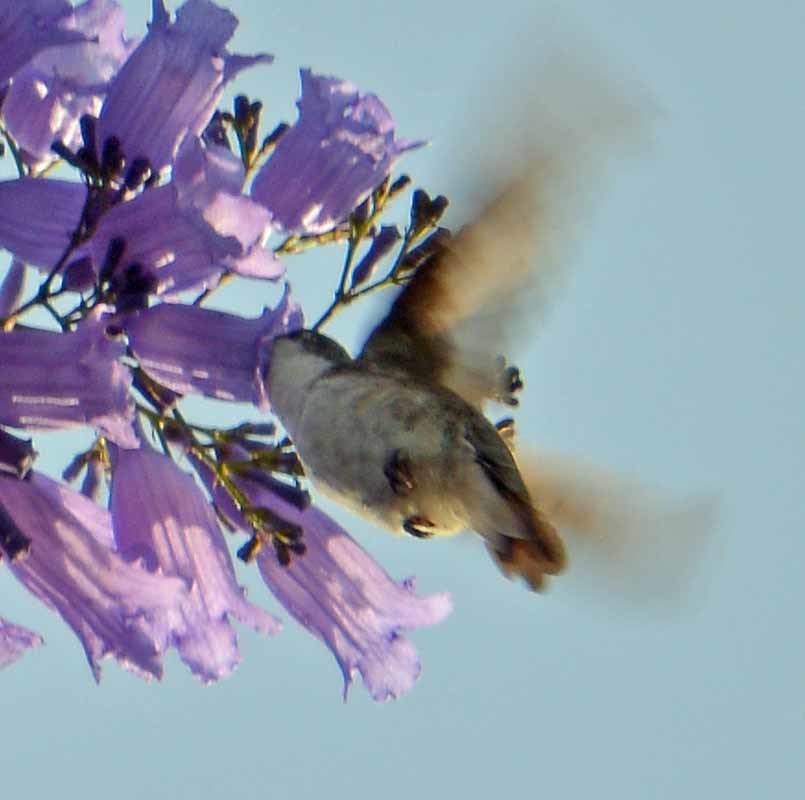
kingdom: Animalia
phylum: Chordata
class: Aves
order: Apodiformes
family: Trochilidae
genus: Leucolia
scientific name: Leucolia violiceps
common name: Violet-crowned hummingbird
